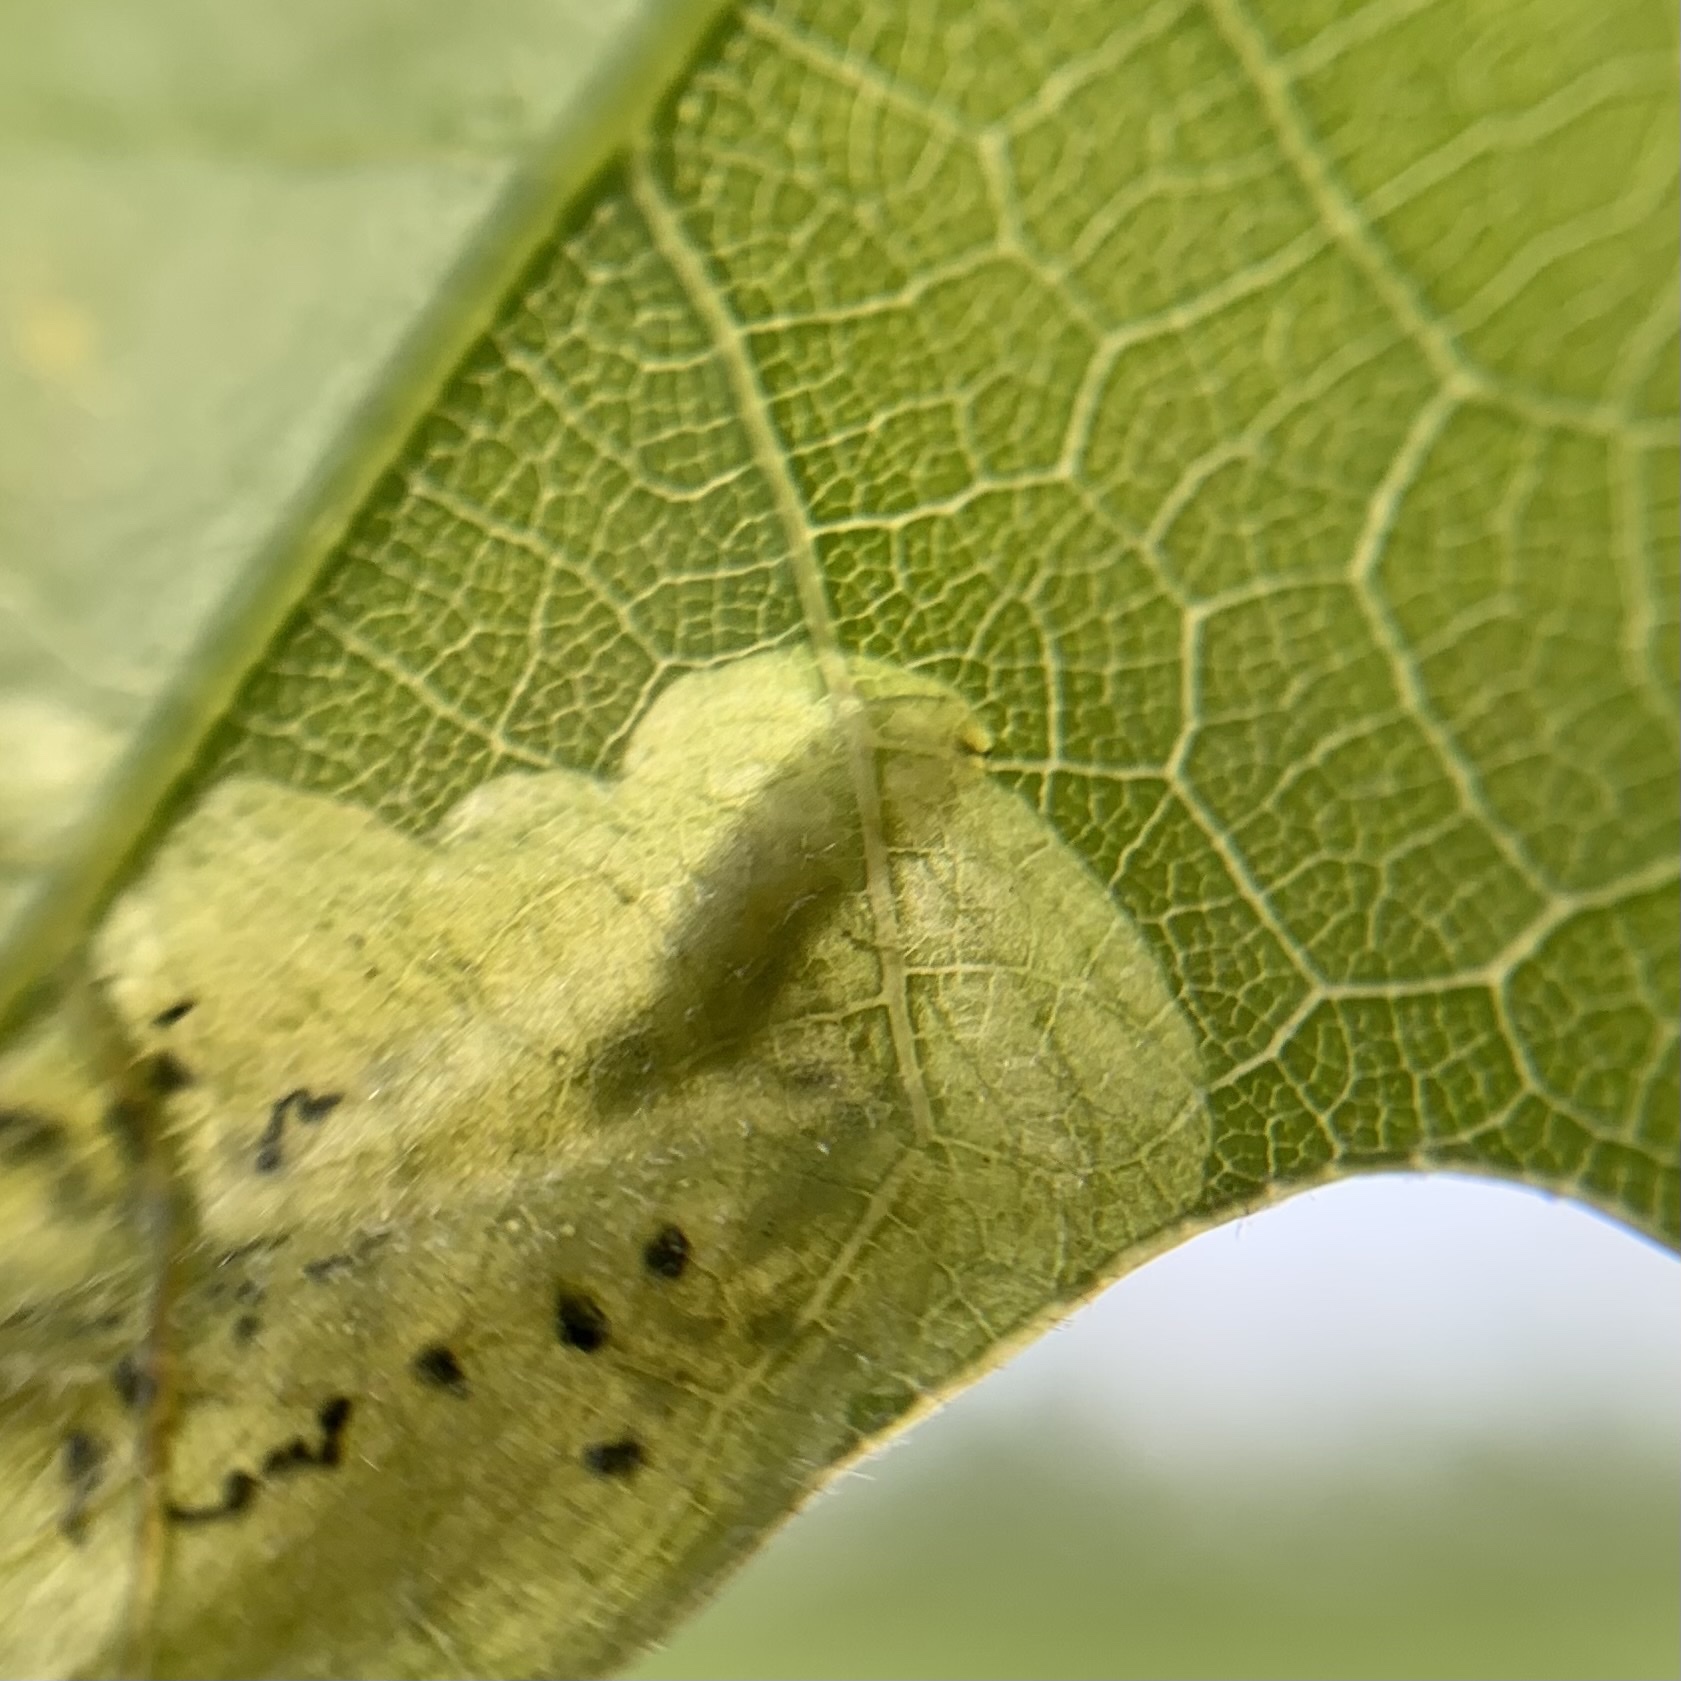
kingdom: Animalia
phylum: Arthropoda
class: Insecta
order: Diptera
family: Agromyzidae
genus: Japanagromyza
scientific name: Japanagromyza viridula
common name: Oak shothole leafminer
